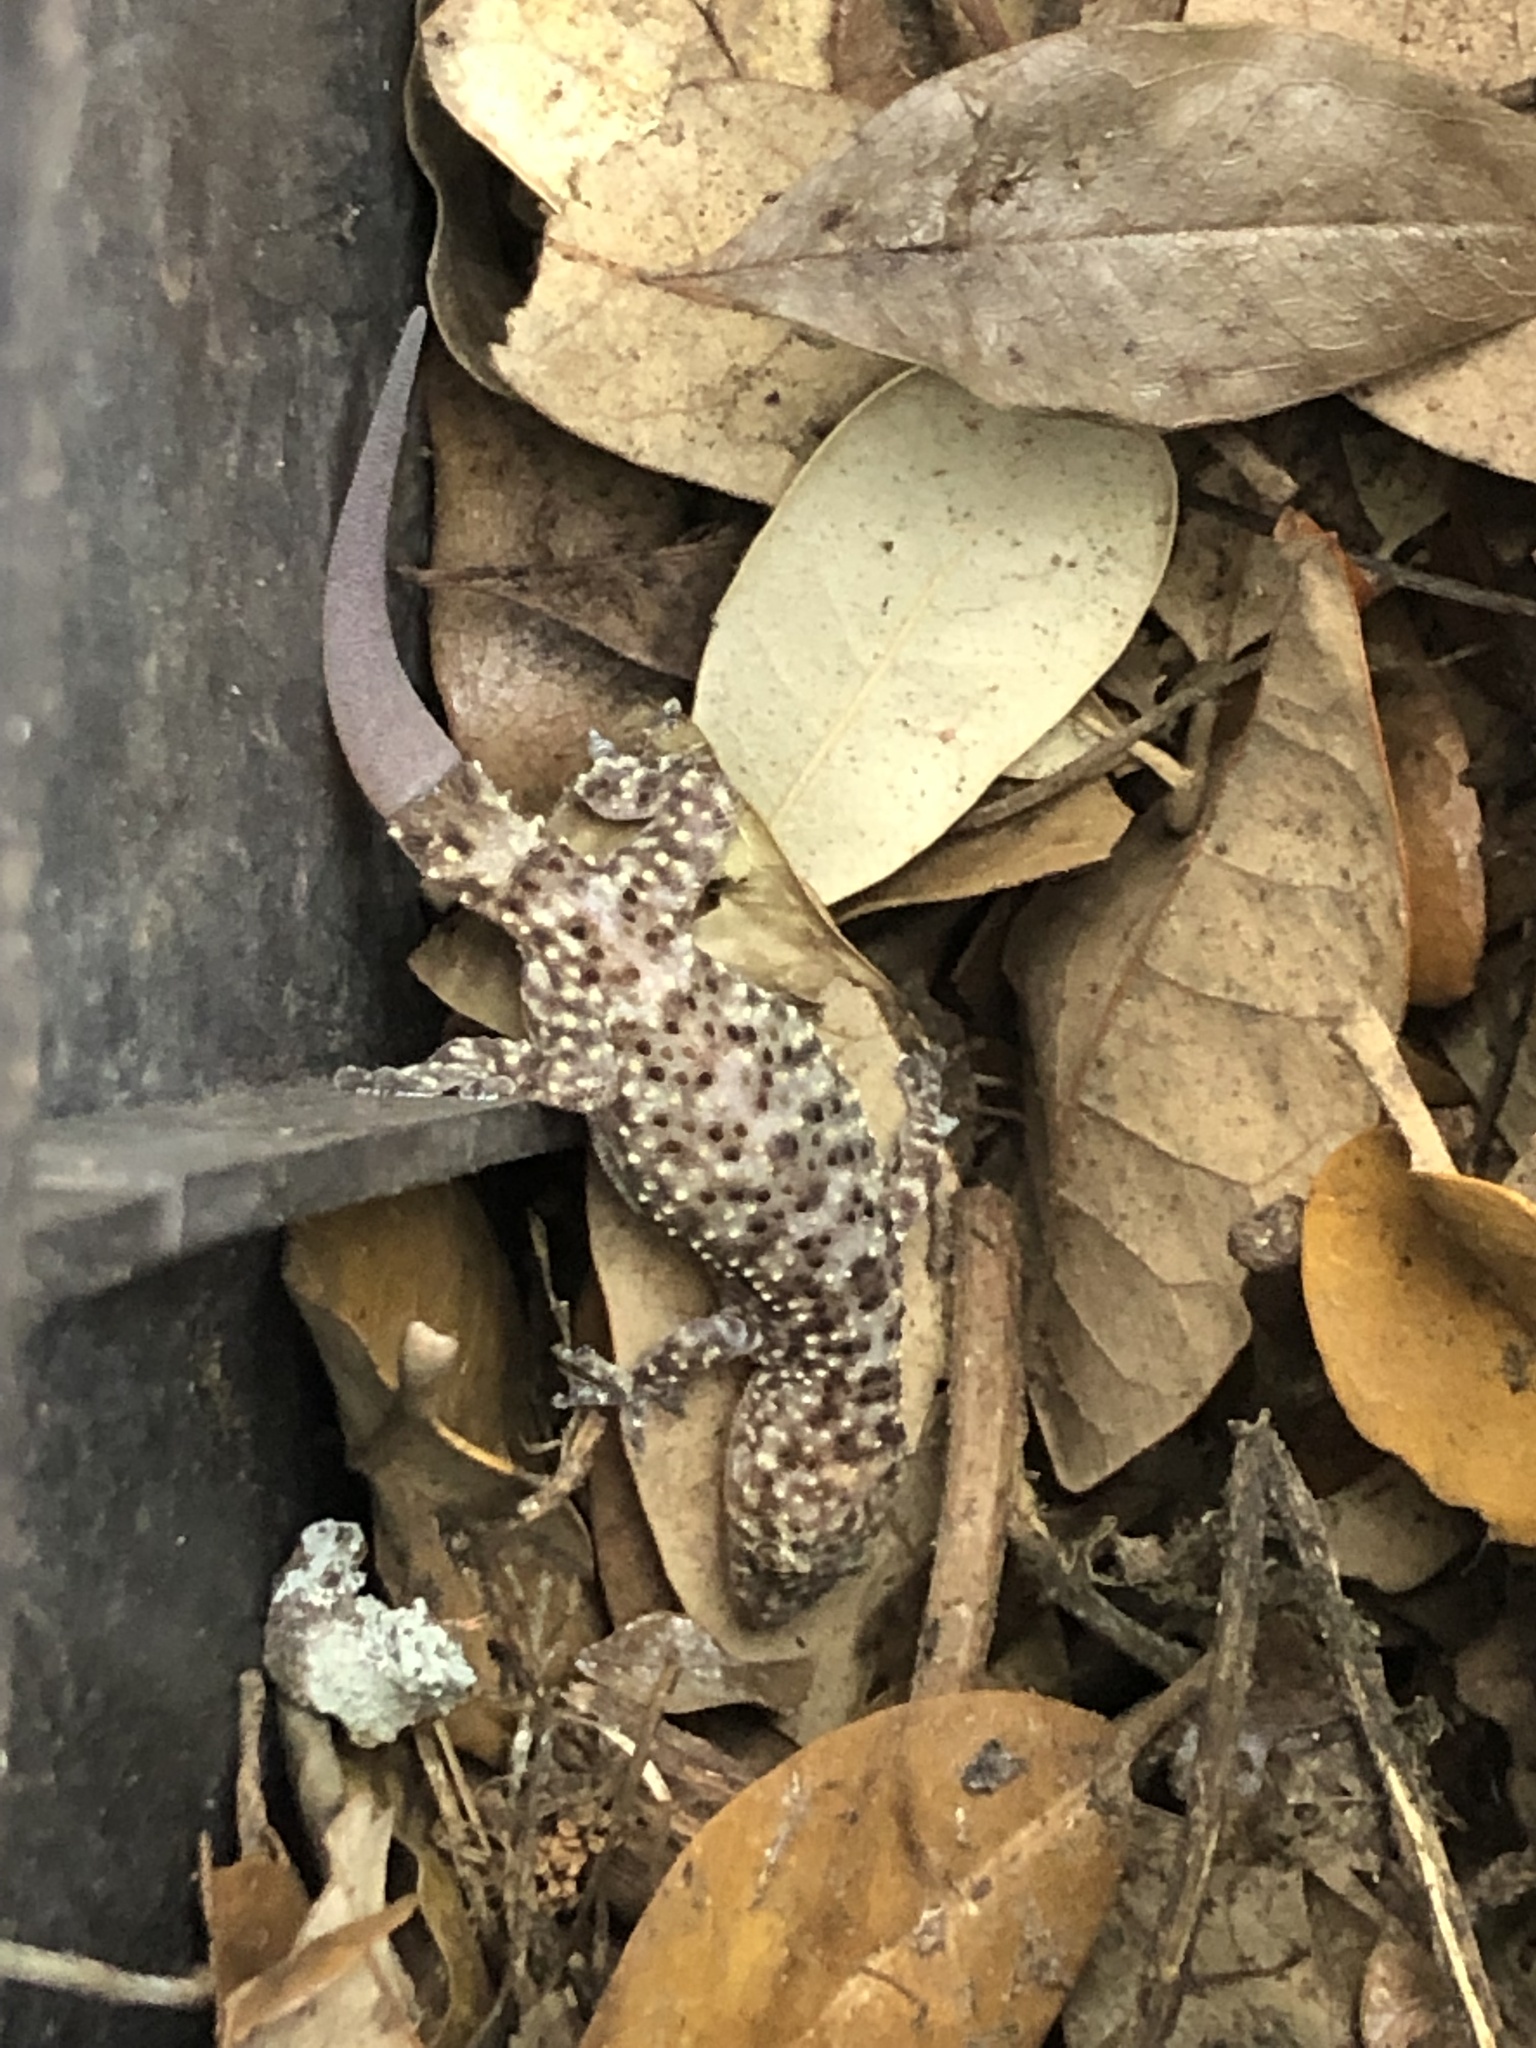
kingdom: Animalia
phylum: Chordata
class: Squamata
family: Gekkonidae
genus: Hemidactylus
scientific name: Hemidactylus turcicus
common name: Turkish gecko
